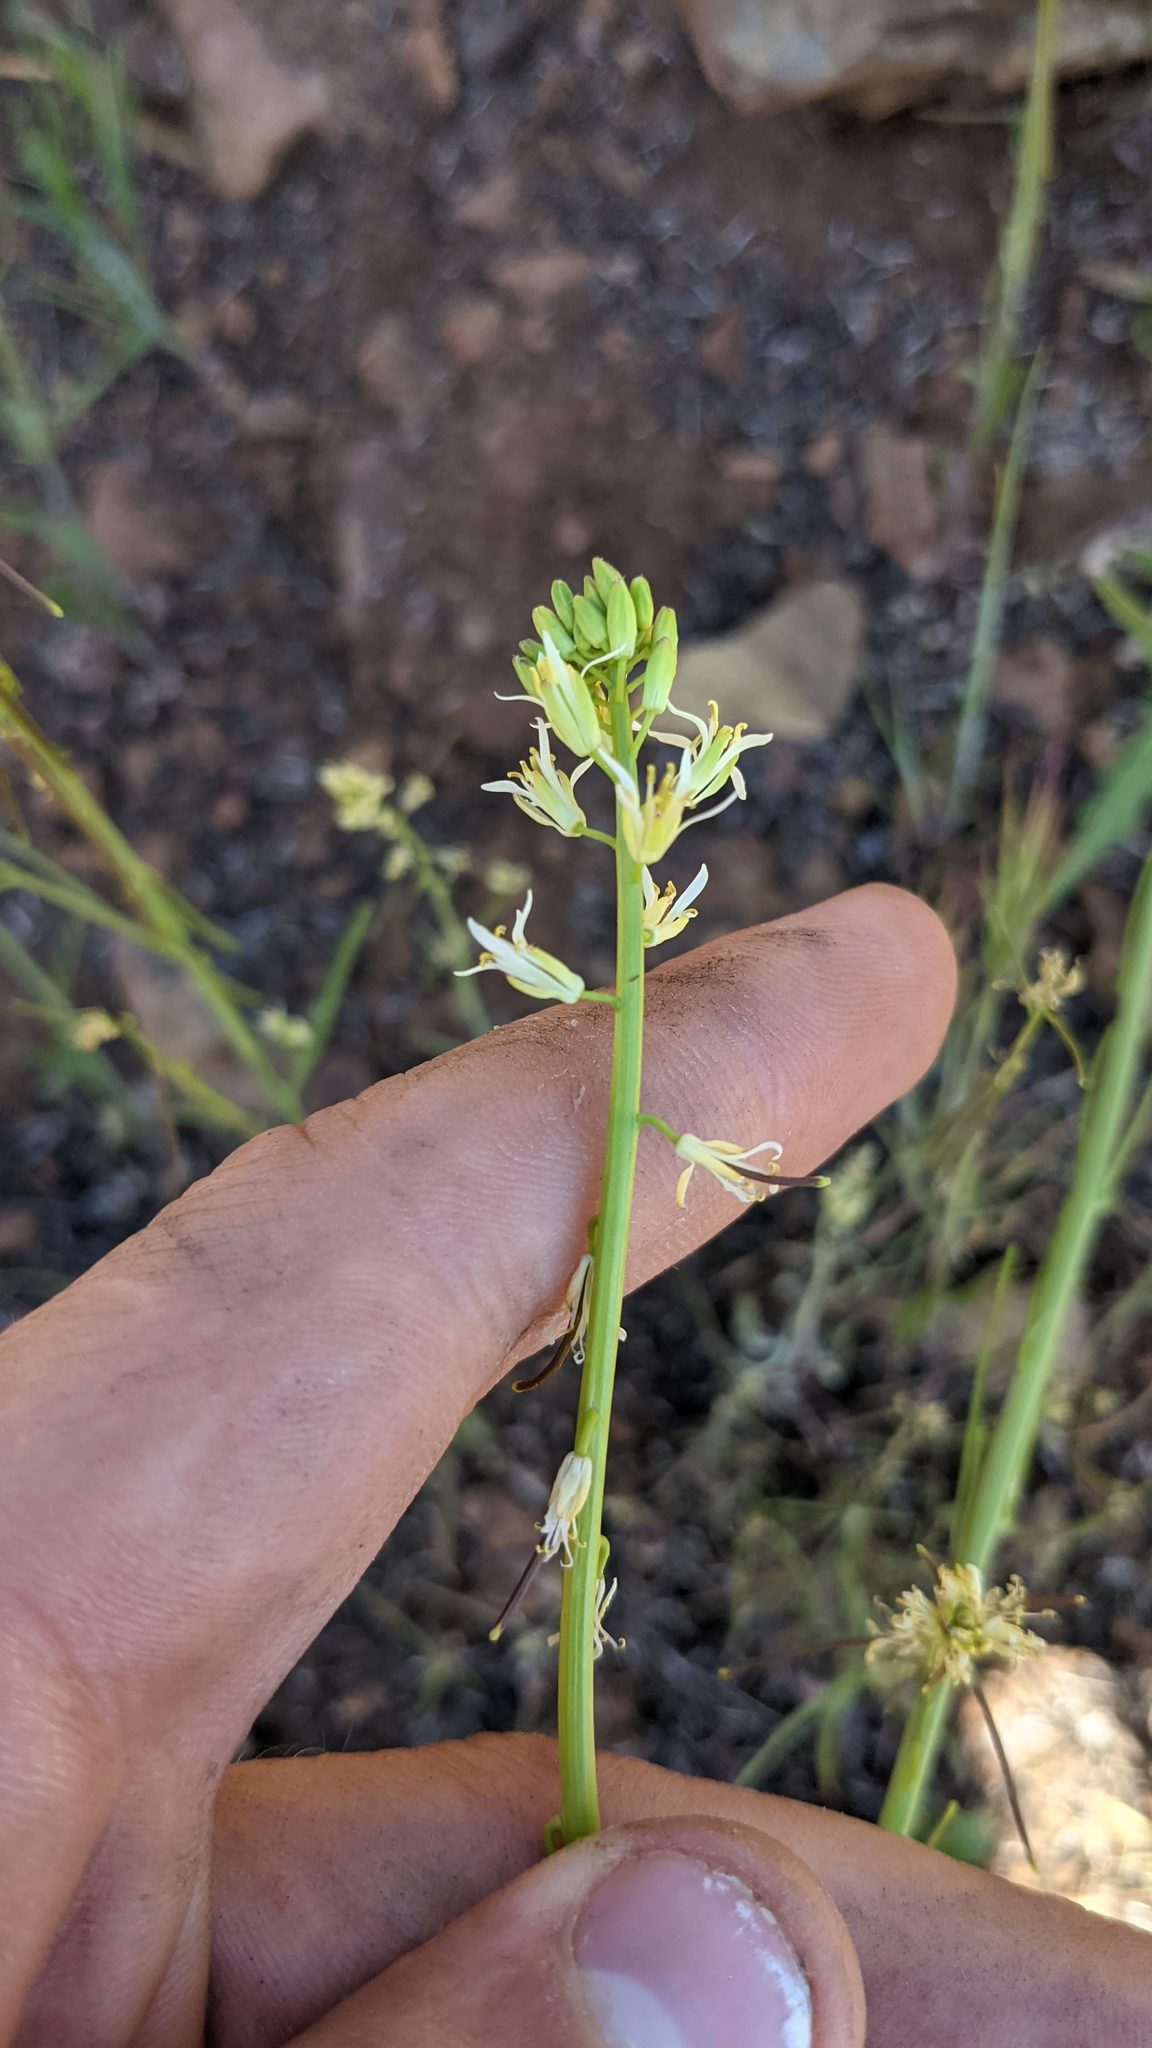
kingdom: Plantae
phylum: Tracheophyta
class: Magnoliopsida
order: Brassicales
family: Brassicaceae
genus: Streptanthus
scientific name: Streptanthus lasiophyllus
